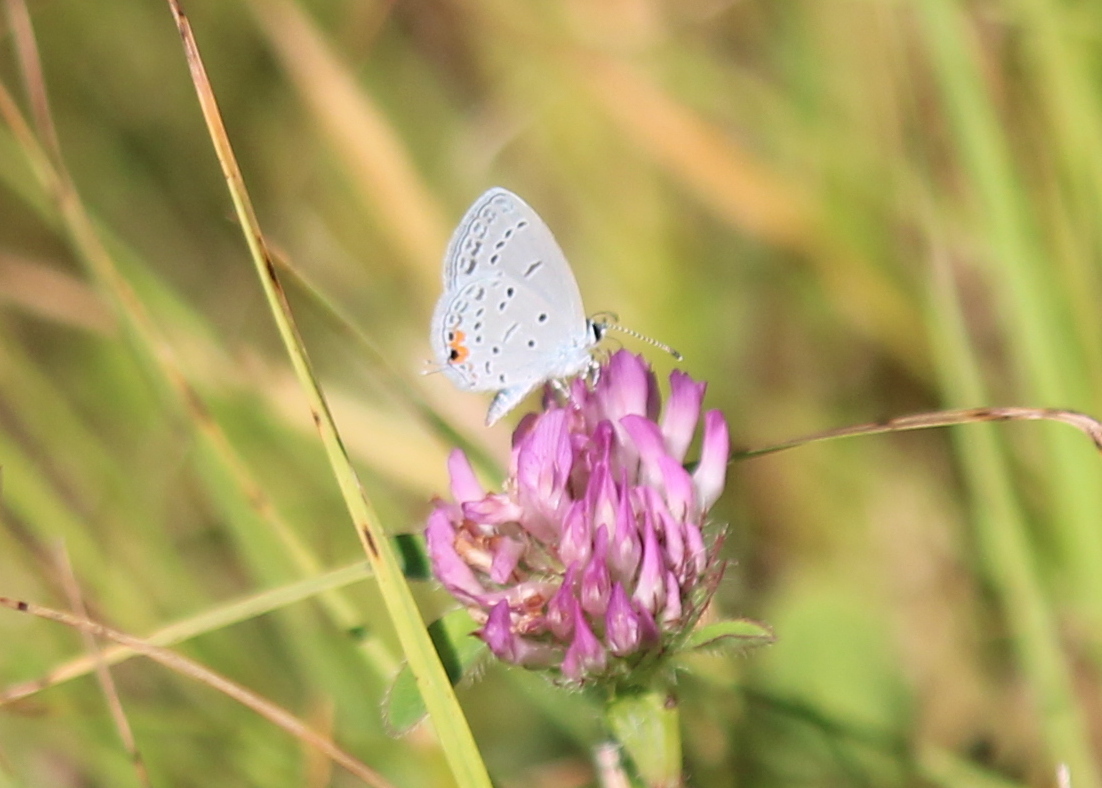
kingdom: Animalia
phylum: Arthropoda
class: Insecta
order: Lepidoptera
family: Lycaenidae
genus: Elkalyce
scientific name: Elkalyce comyntas
